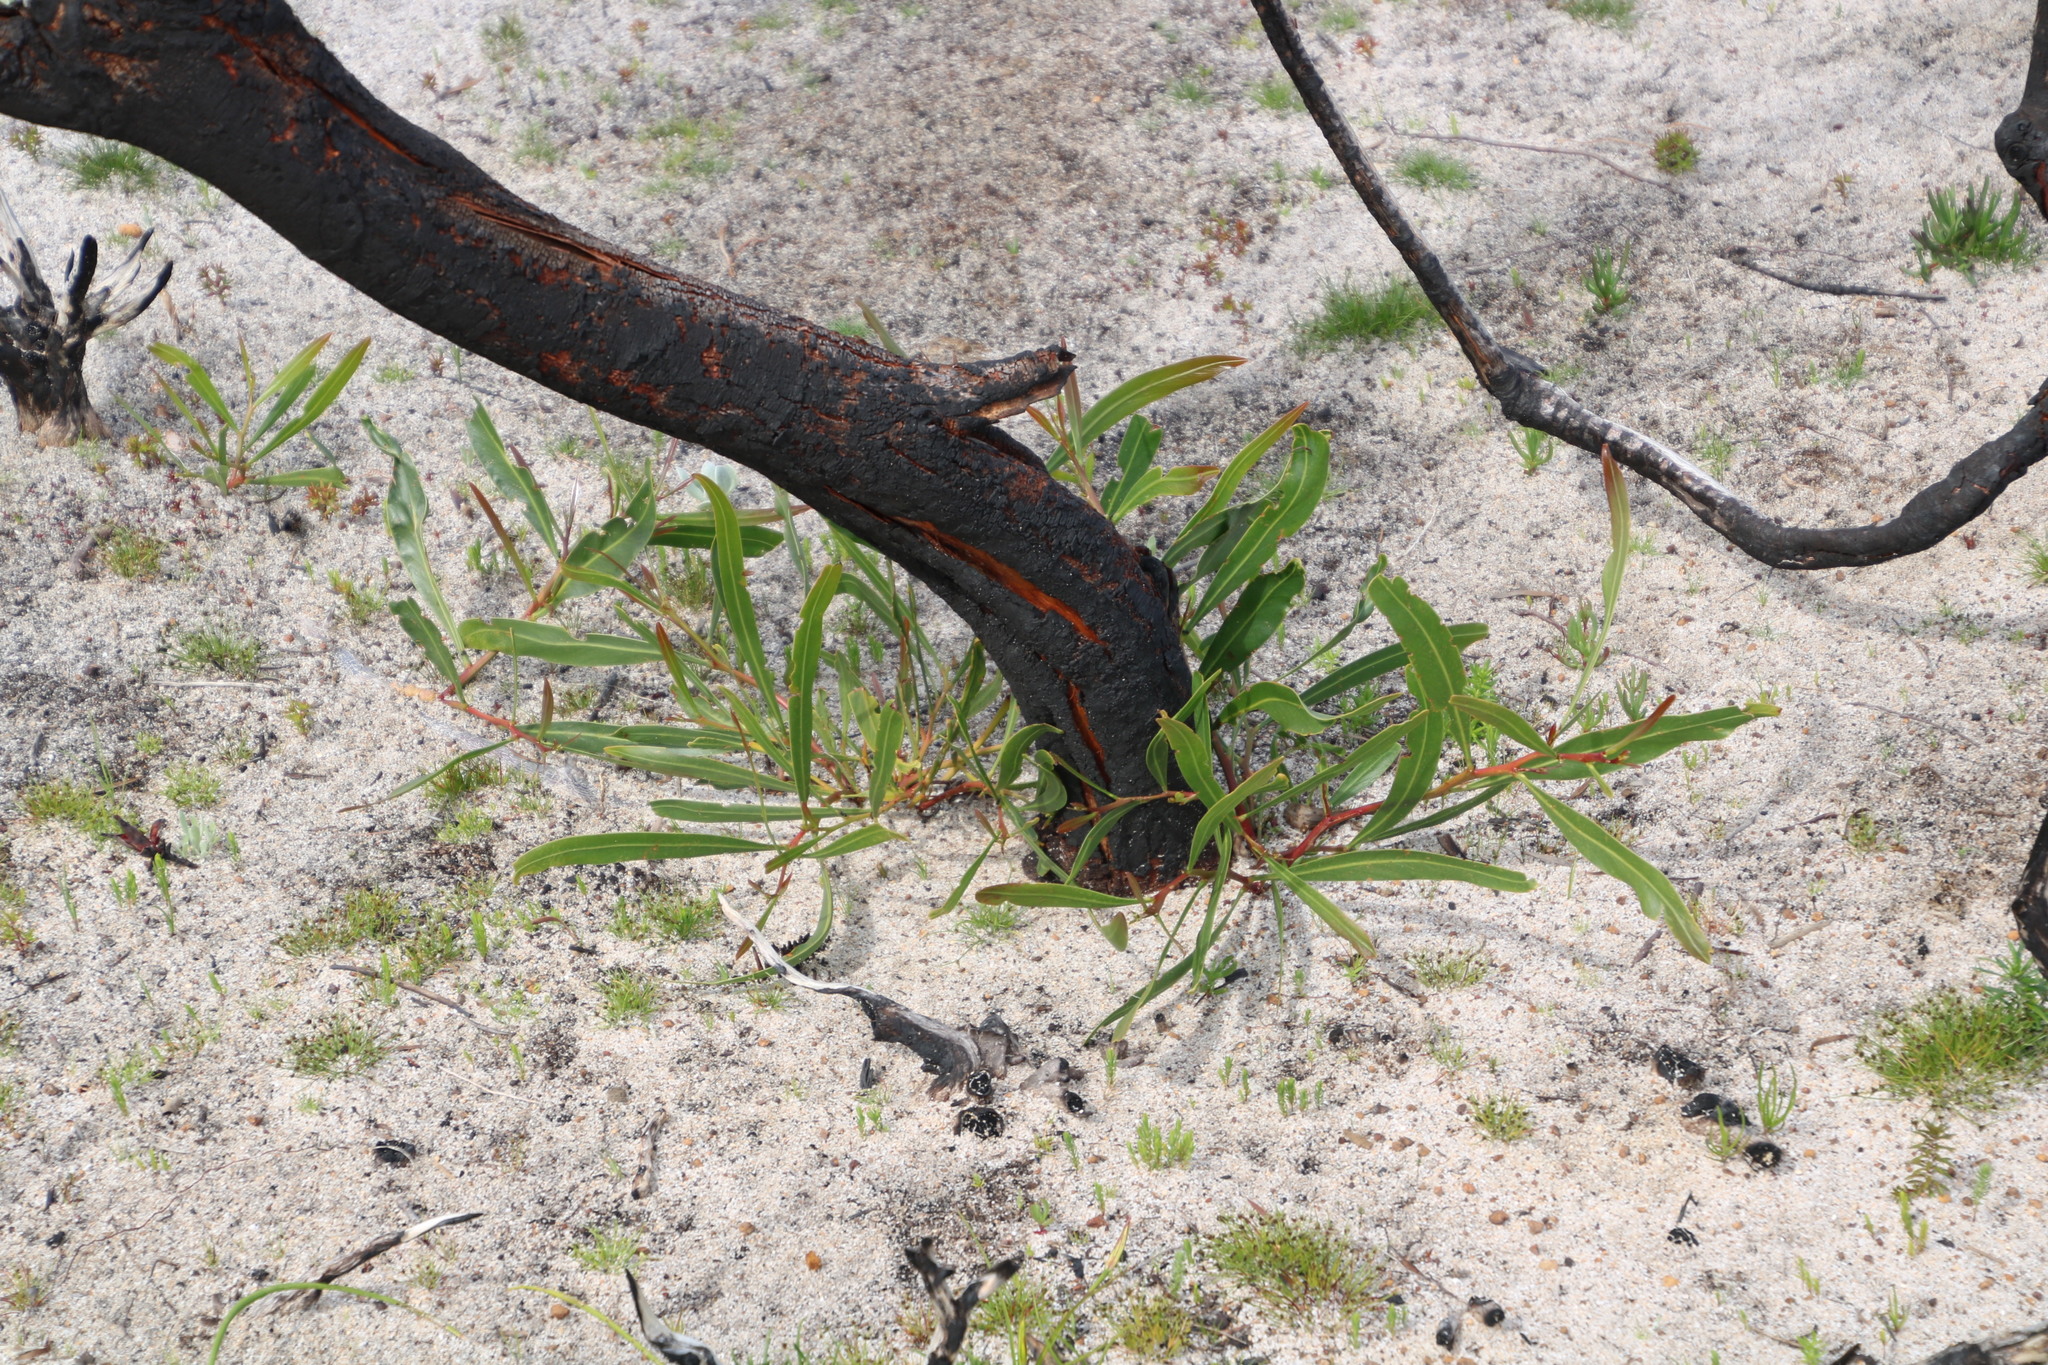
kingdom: Plantae
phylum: Tracheophyta
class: Magnoliopsida
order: Fabales
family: Fabaceae
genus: Acacia
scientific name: Acacia saligna
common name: Orange wattle
